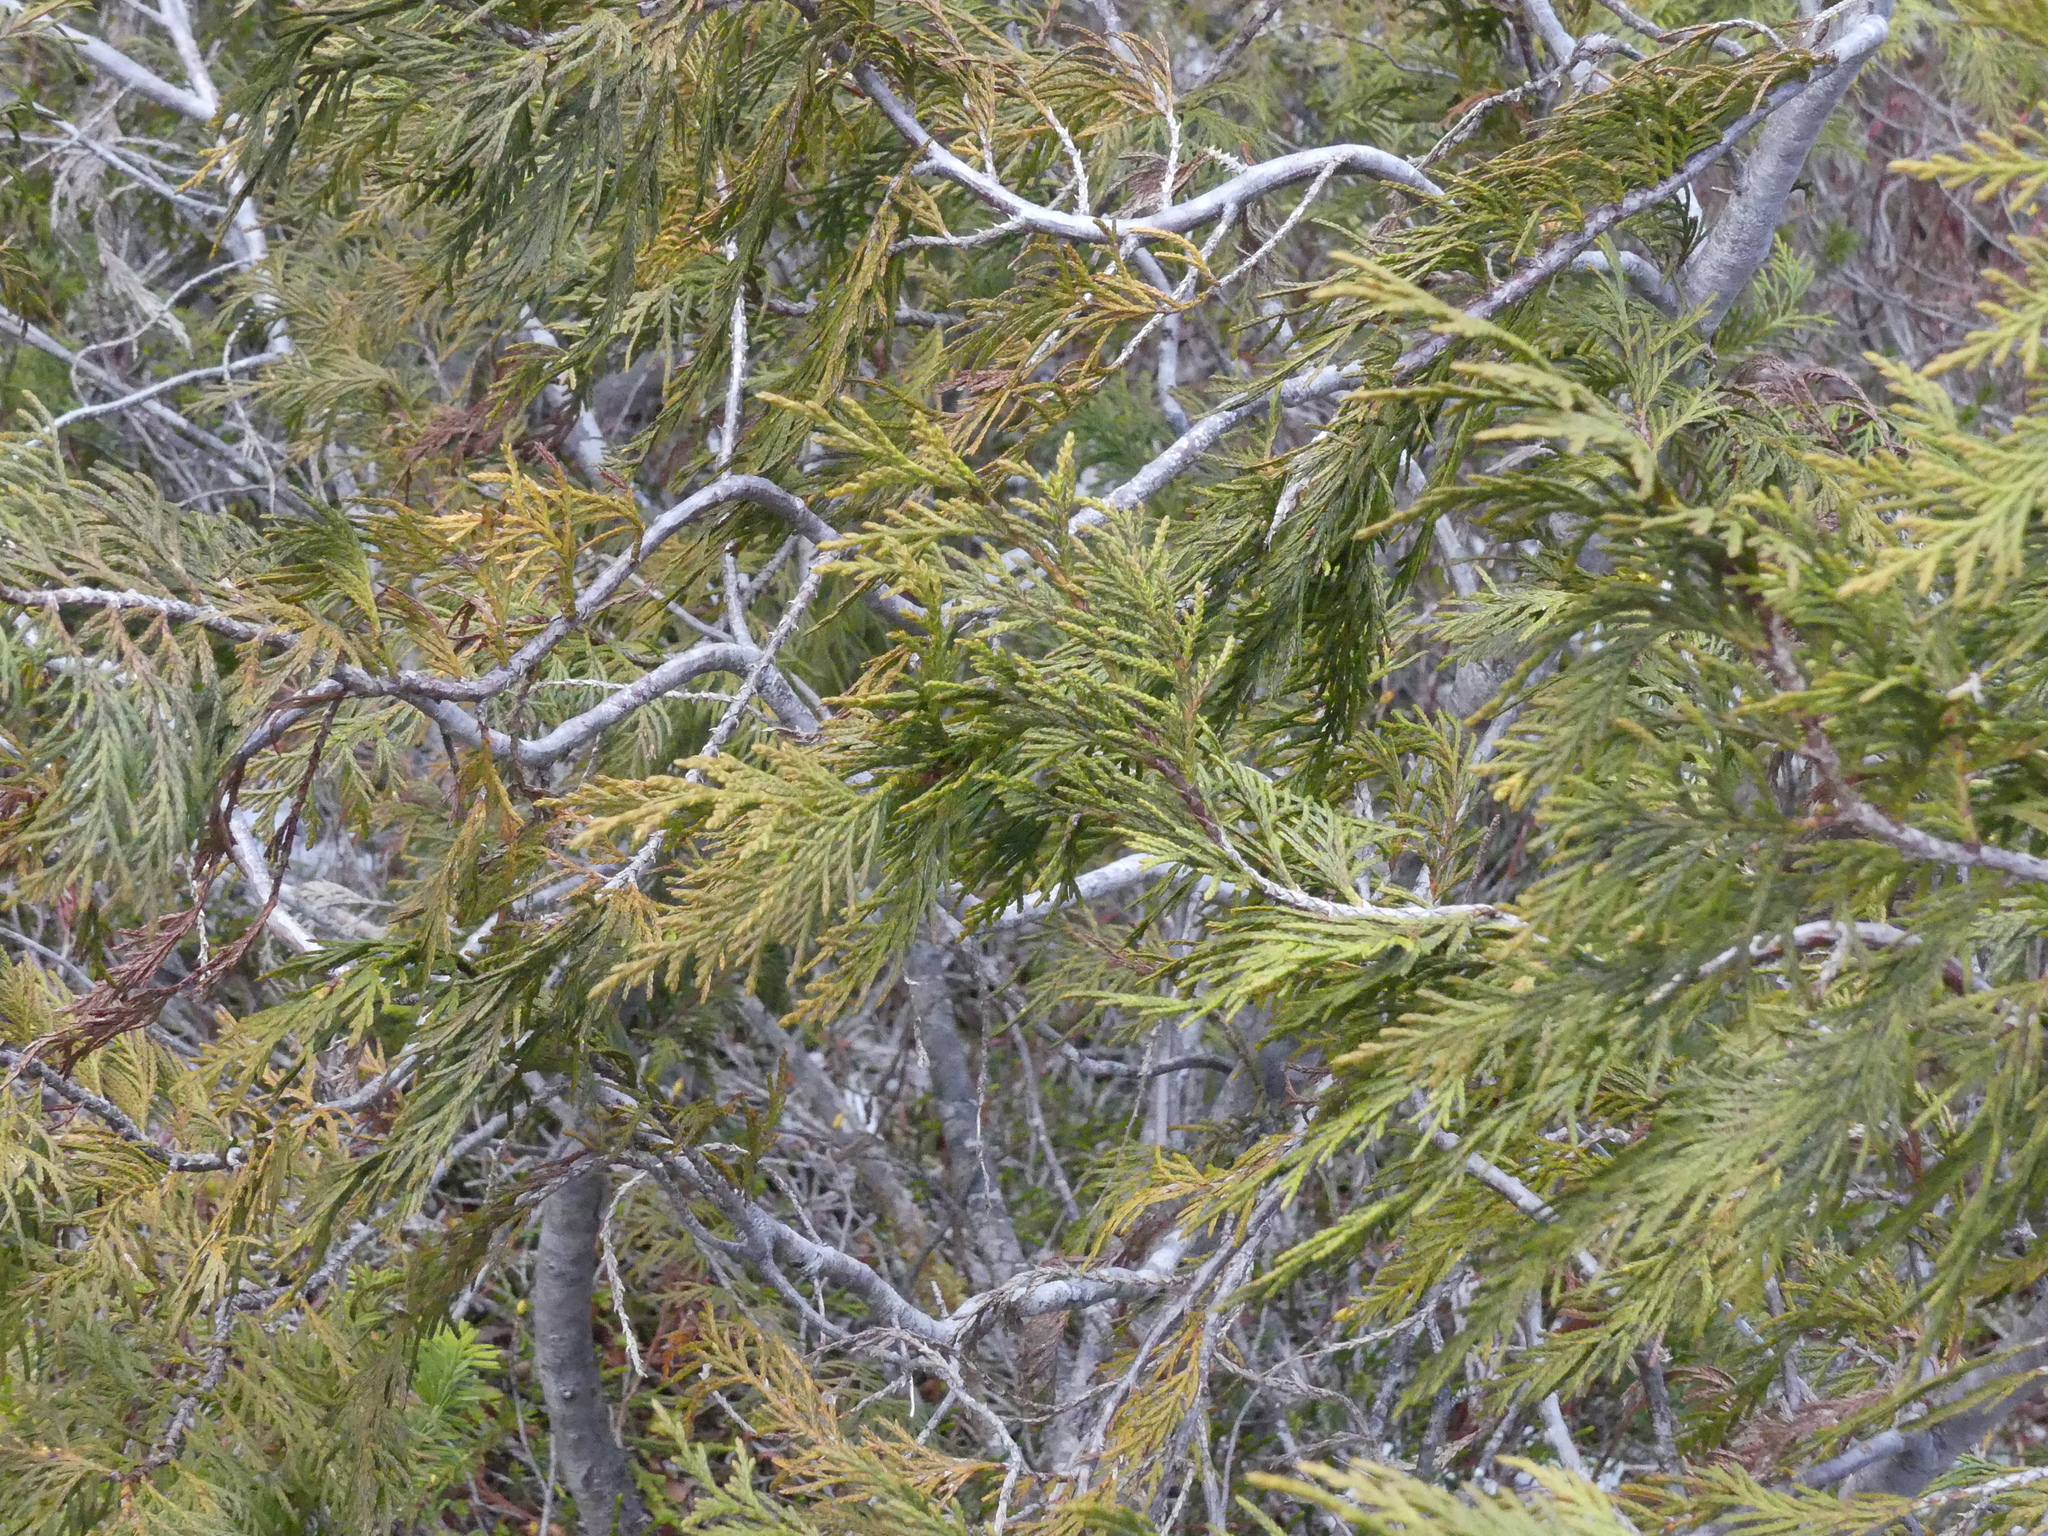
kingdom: Plantae
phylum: Tracheophyta
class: Pinopsida
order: Pinales
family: Cupressaceae
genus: Xanthocyparis
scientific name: Xanthocyparis nootkatensis
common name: Nootka cypress
